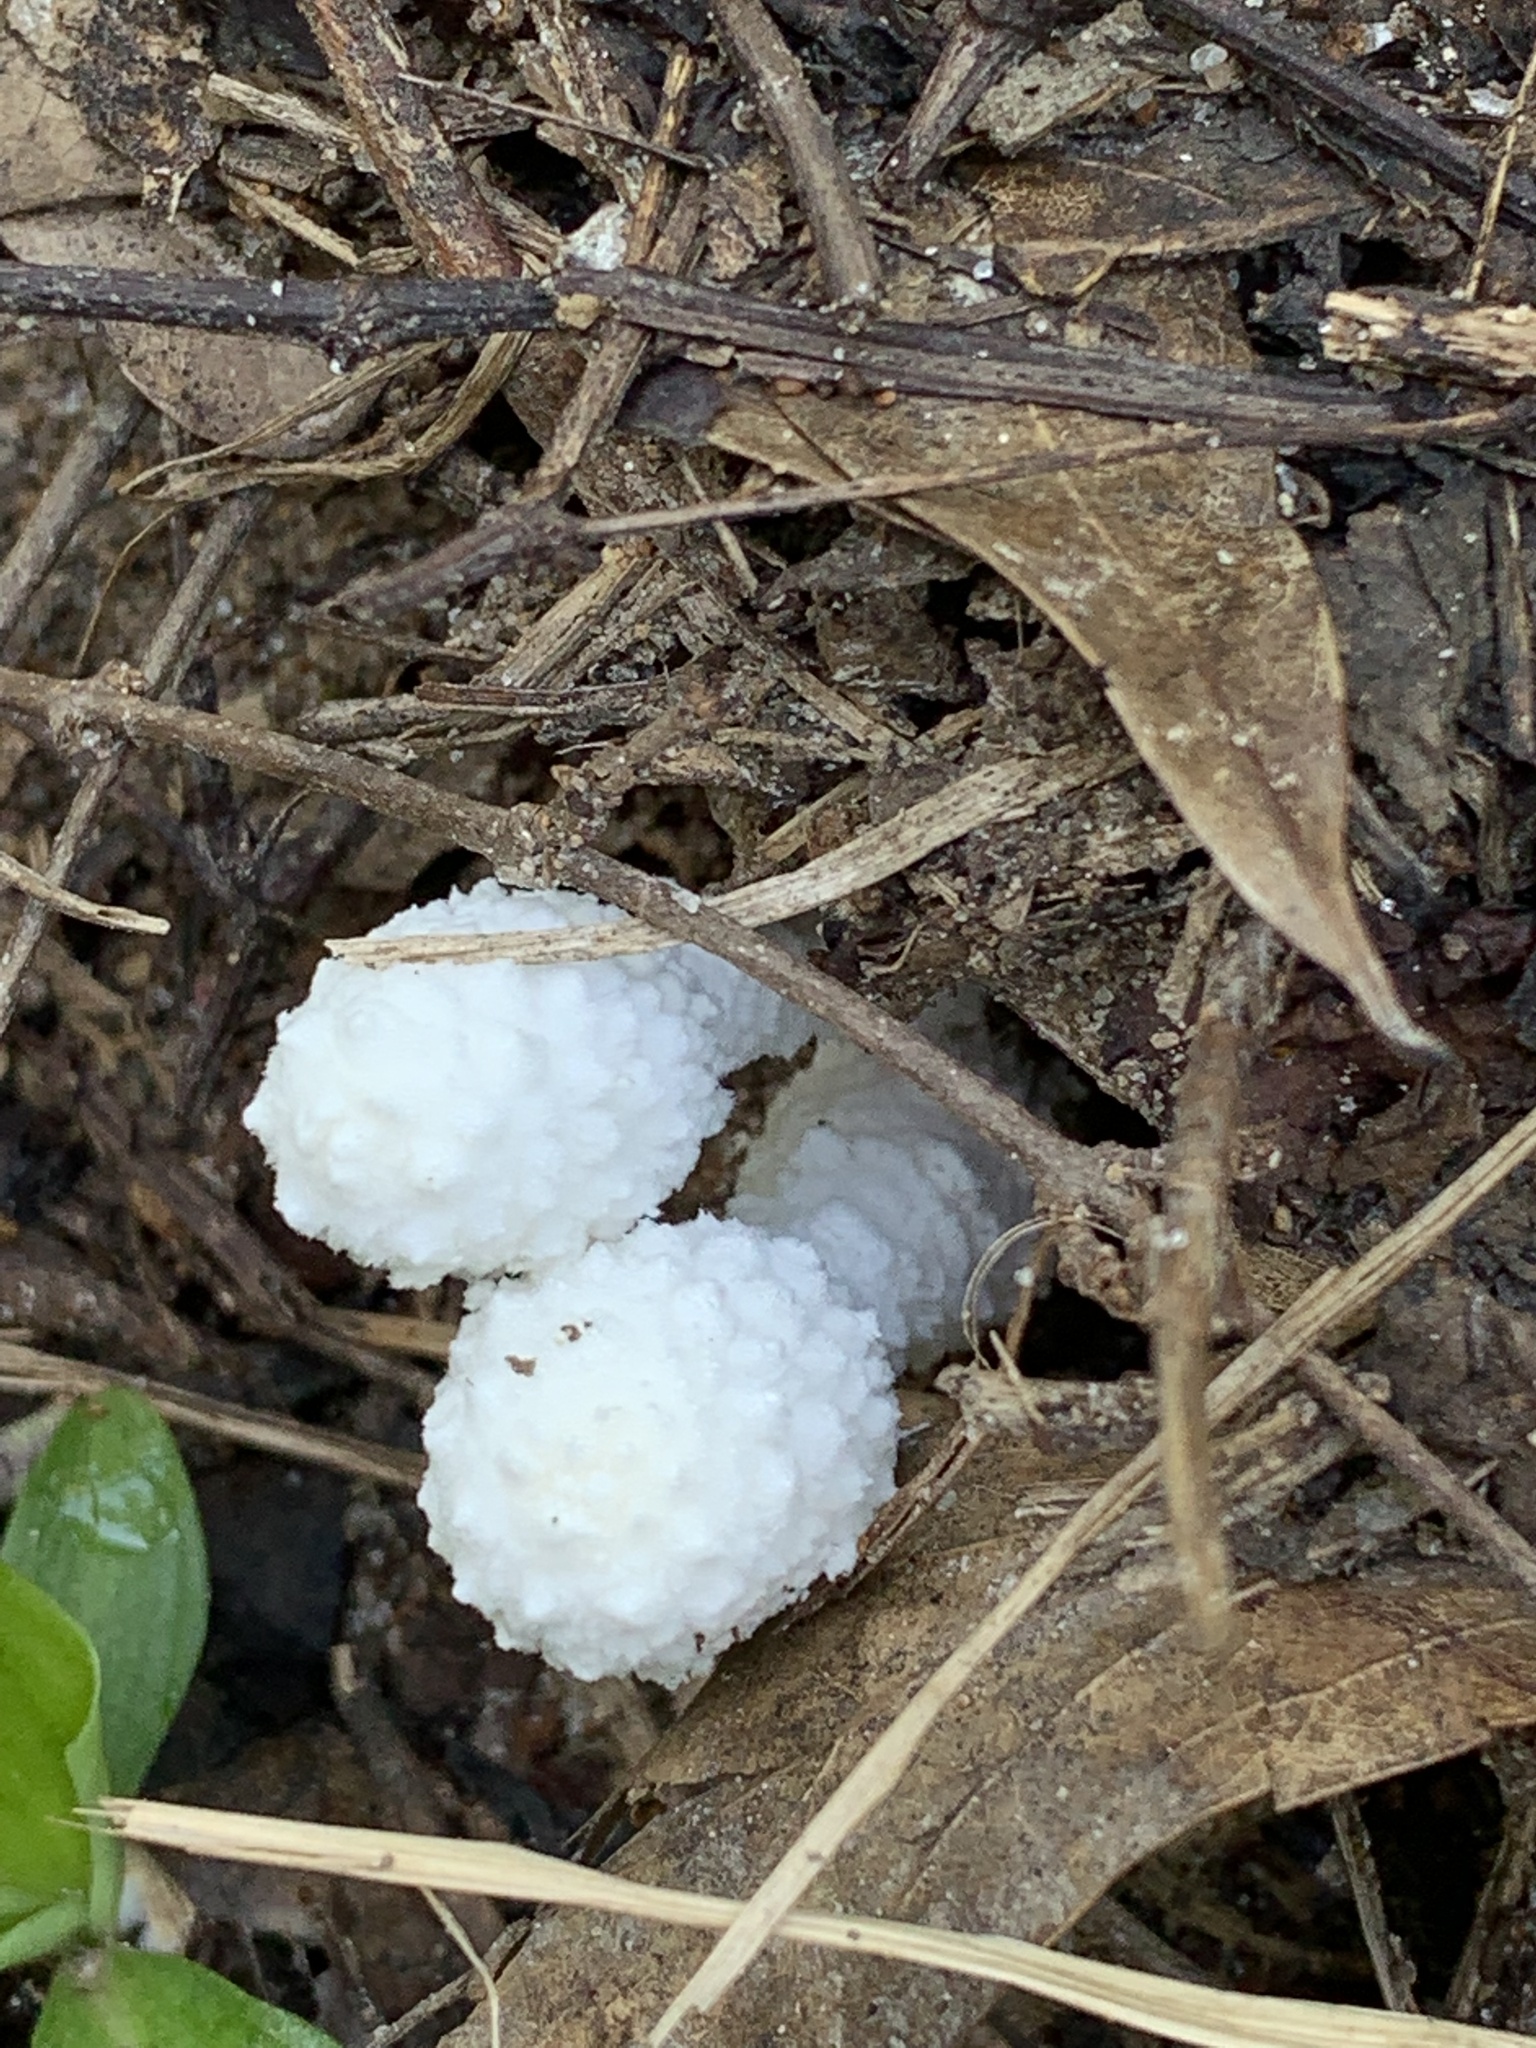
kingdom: Fungi
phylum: Basidiomycota
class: Agaricomycetes
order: Agaricales
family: Agaricaceae
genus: Leucocoprinus
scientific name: Leucocoprinus cretaceus
